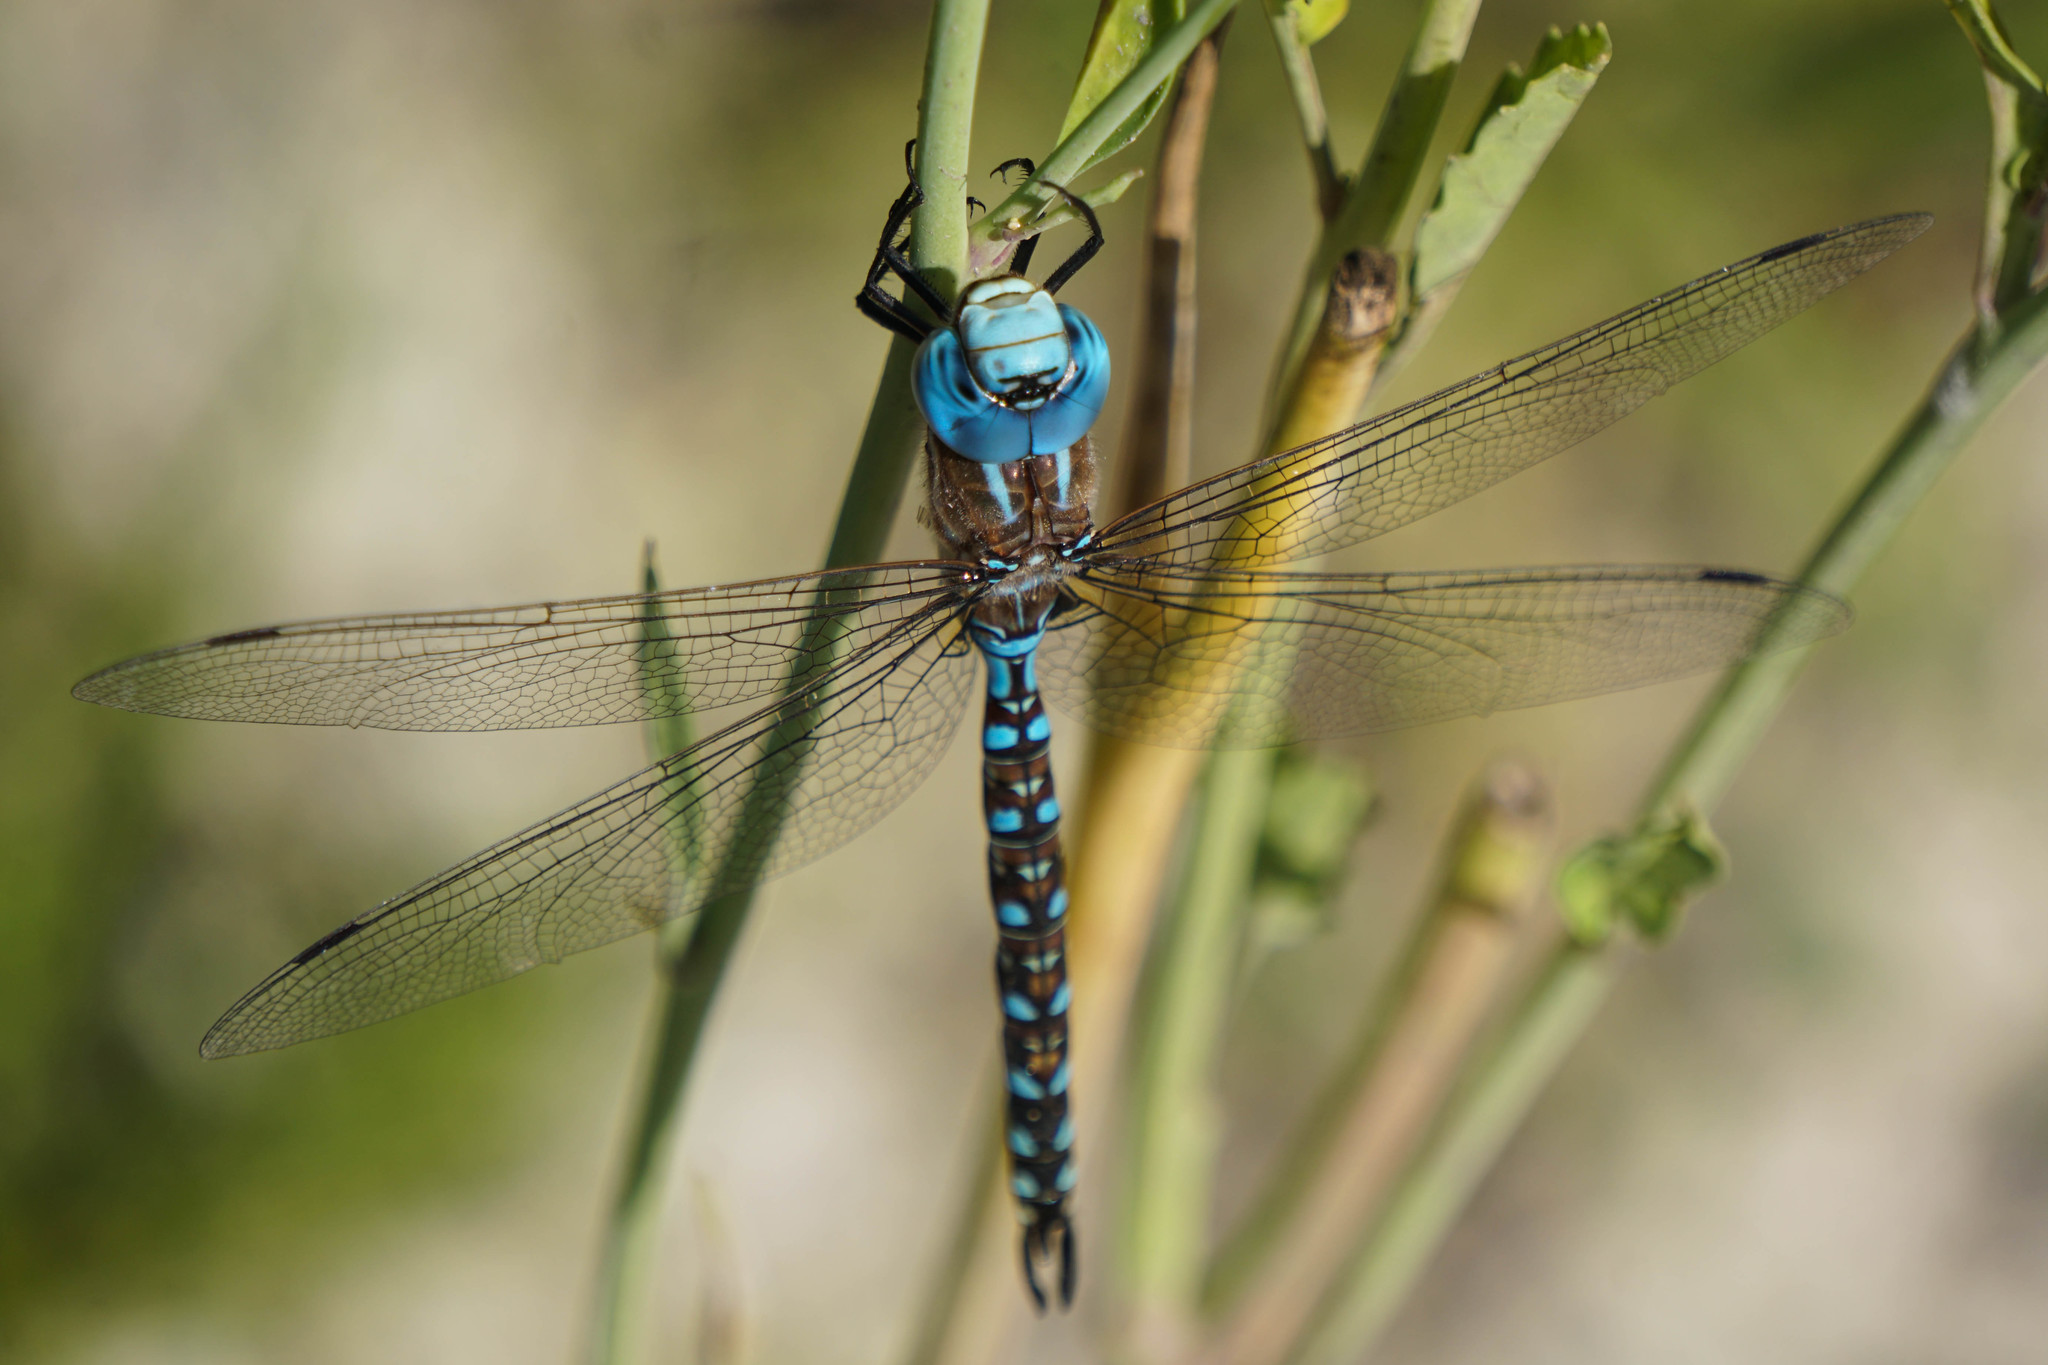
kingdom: Animalia
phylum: Arthropoda
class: Insecta
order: Odonata
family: Aeshnidae
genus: Rhionaeschna
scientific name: Rhionaeschna multicolor
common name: Blue-eyed darner
